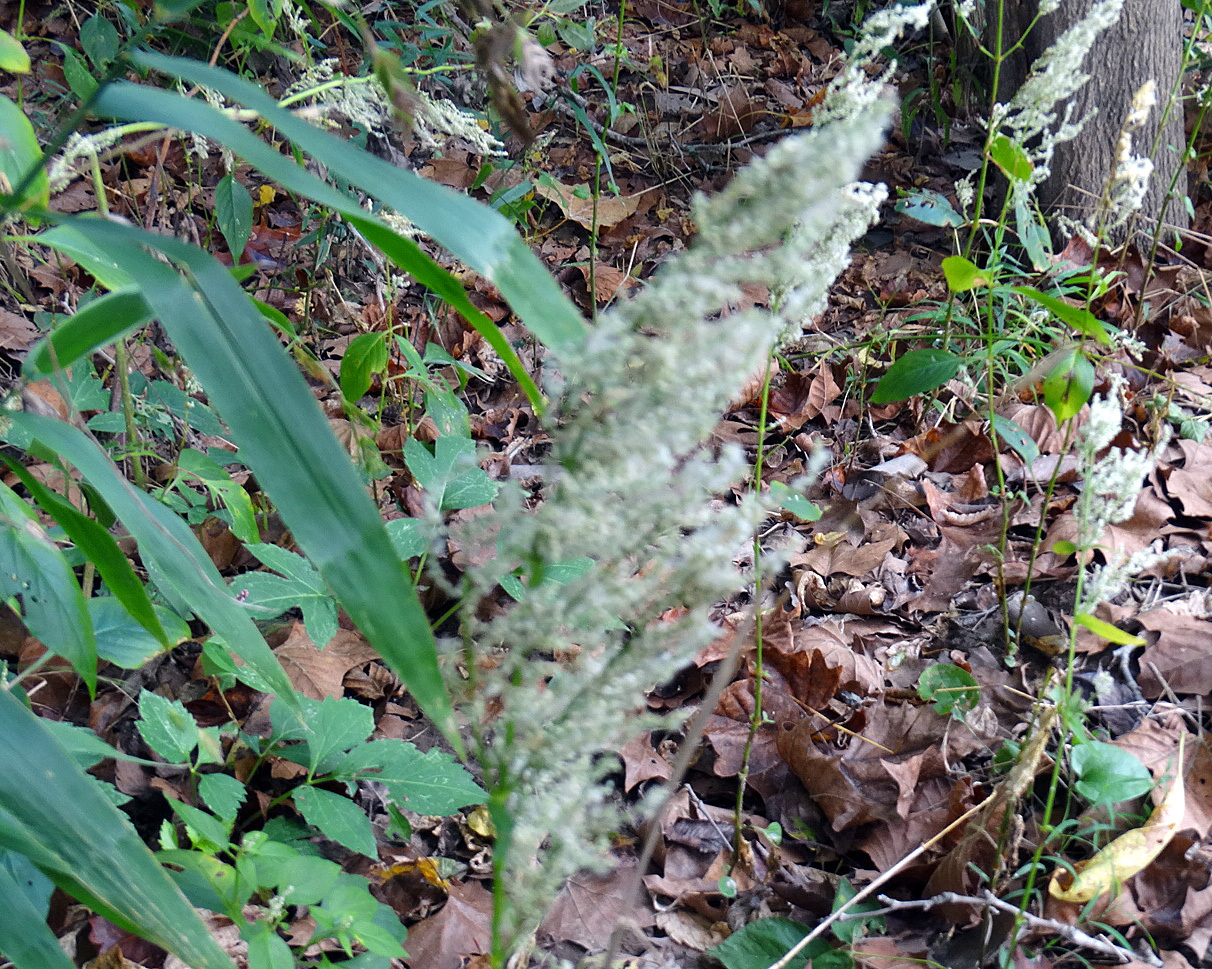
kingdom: Plantae
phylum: Tracheophyta
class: Magnoliopsida
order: Caryophyllales
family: Amaranthaceae
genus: Iresine
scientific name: Iresine rhizomatosa
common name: Juda's-bush
